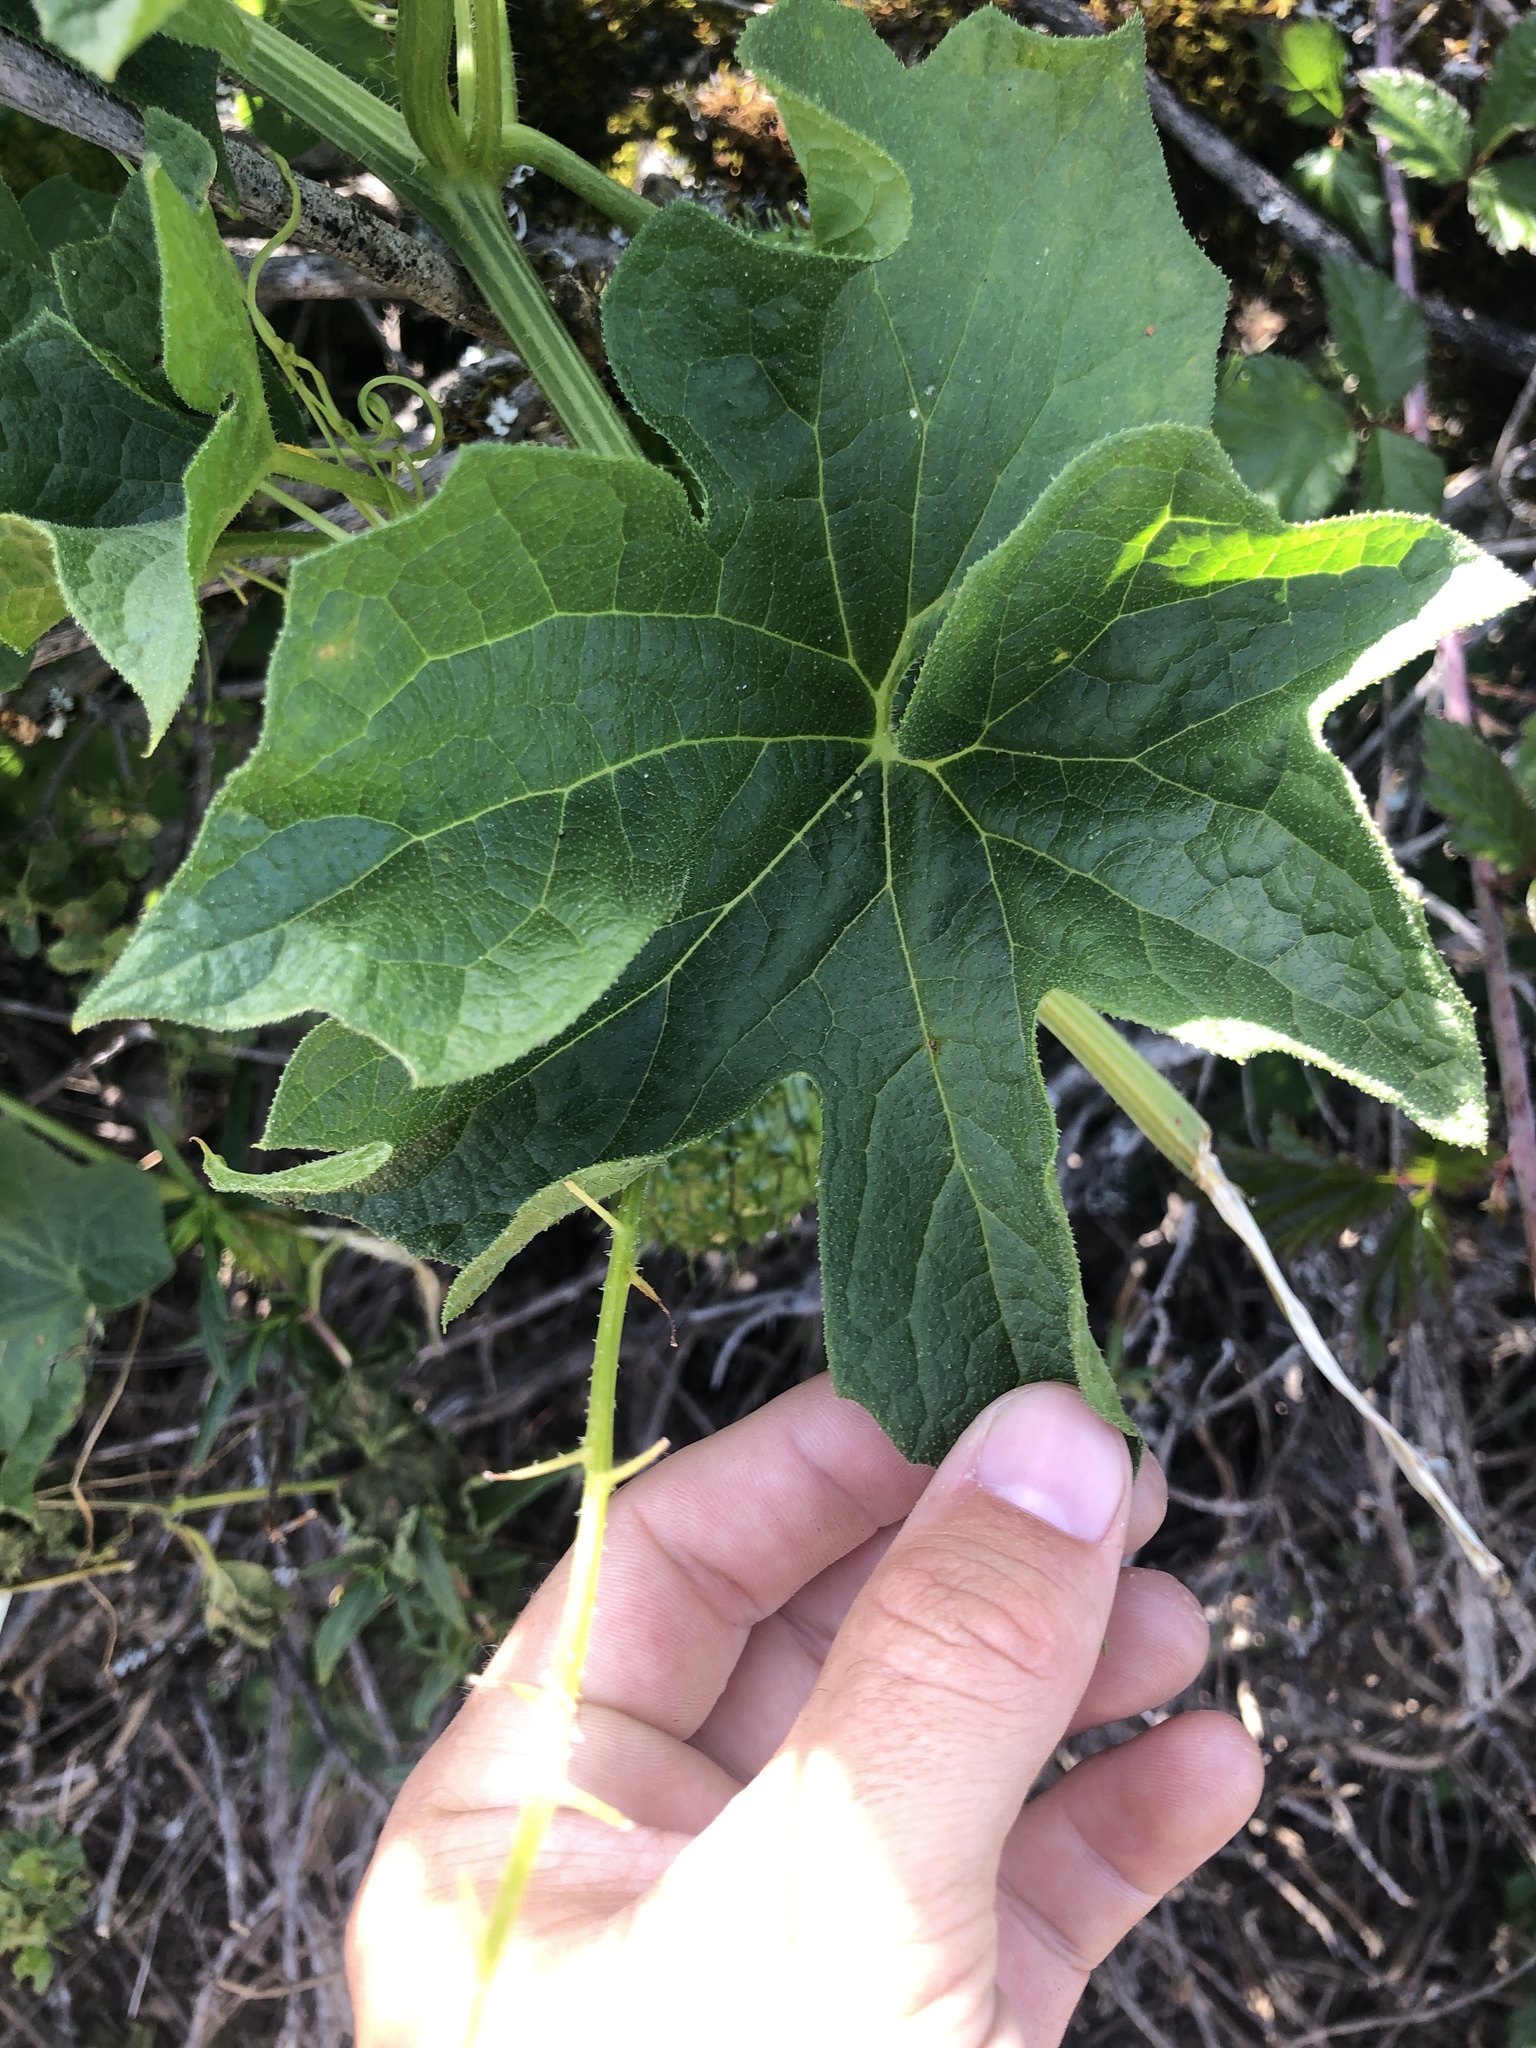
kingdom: Plantae
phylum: Tracheophyta
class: Magnoliopsida
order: Cucurbitales
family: Cucurbitaceae
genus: Marah
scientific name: Marah oregana
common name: Coastal manroot
